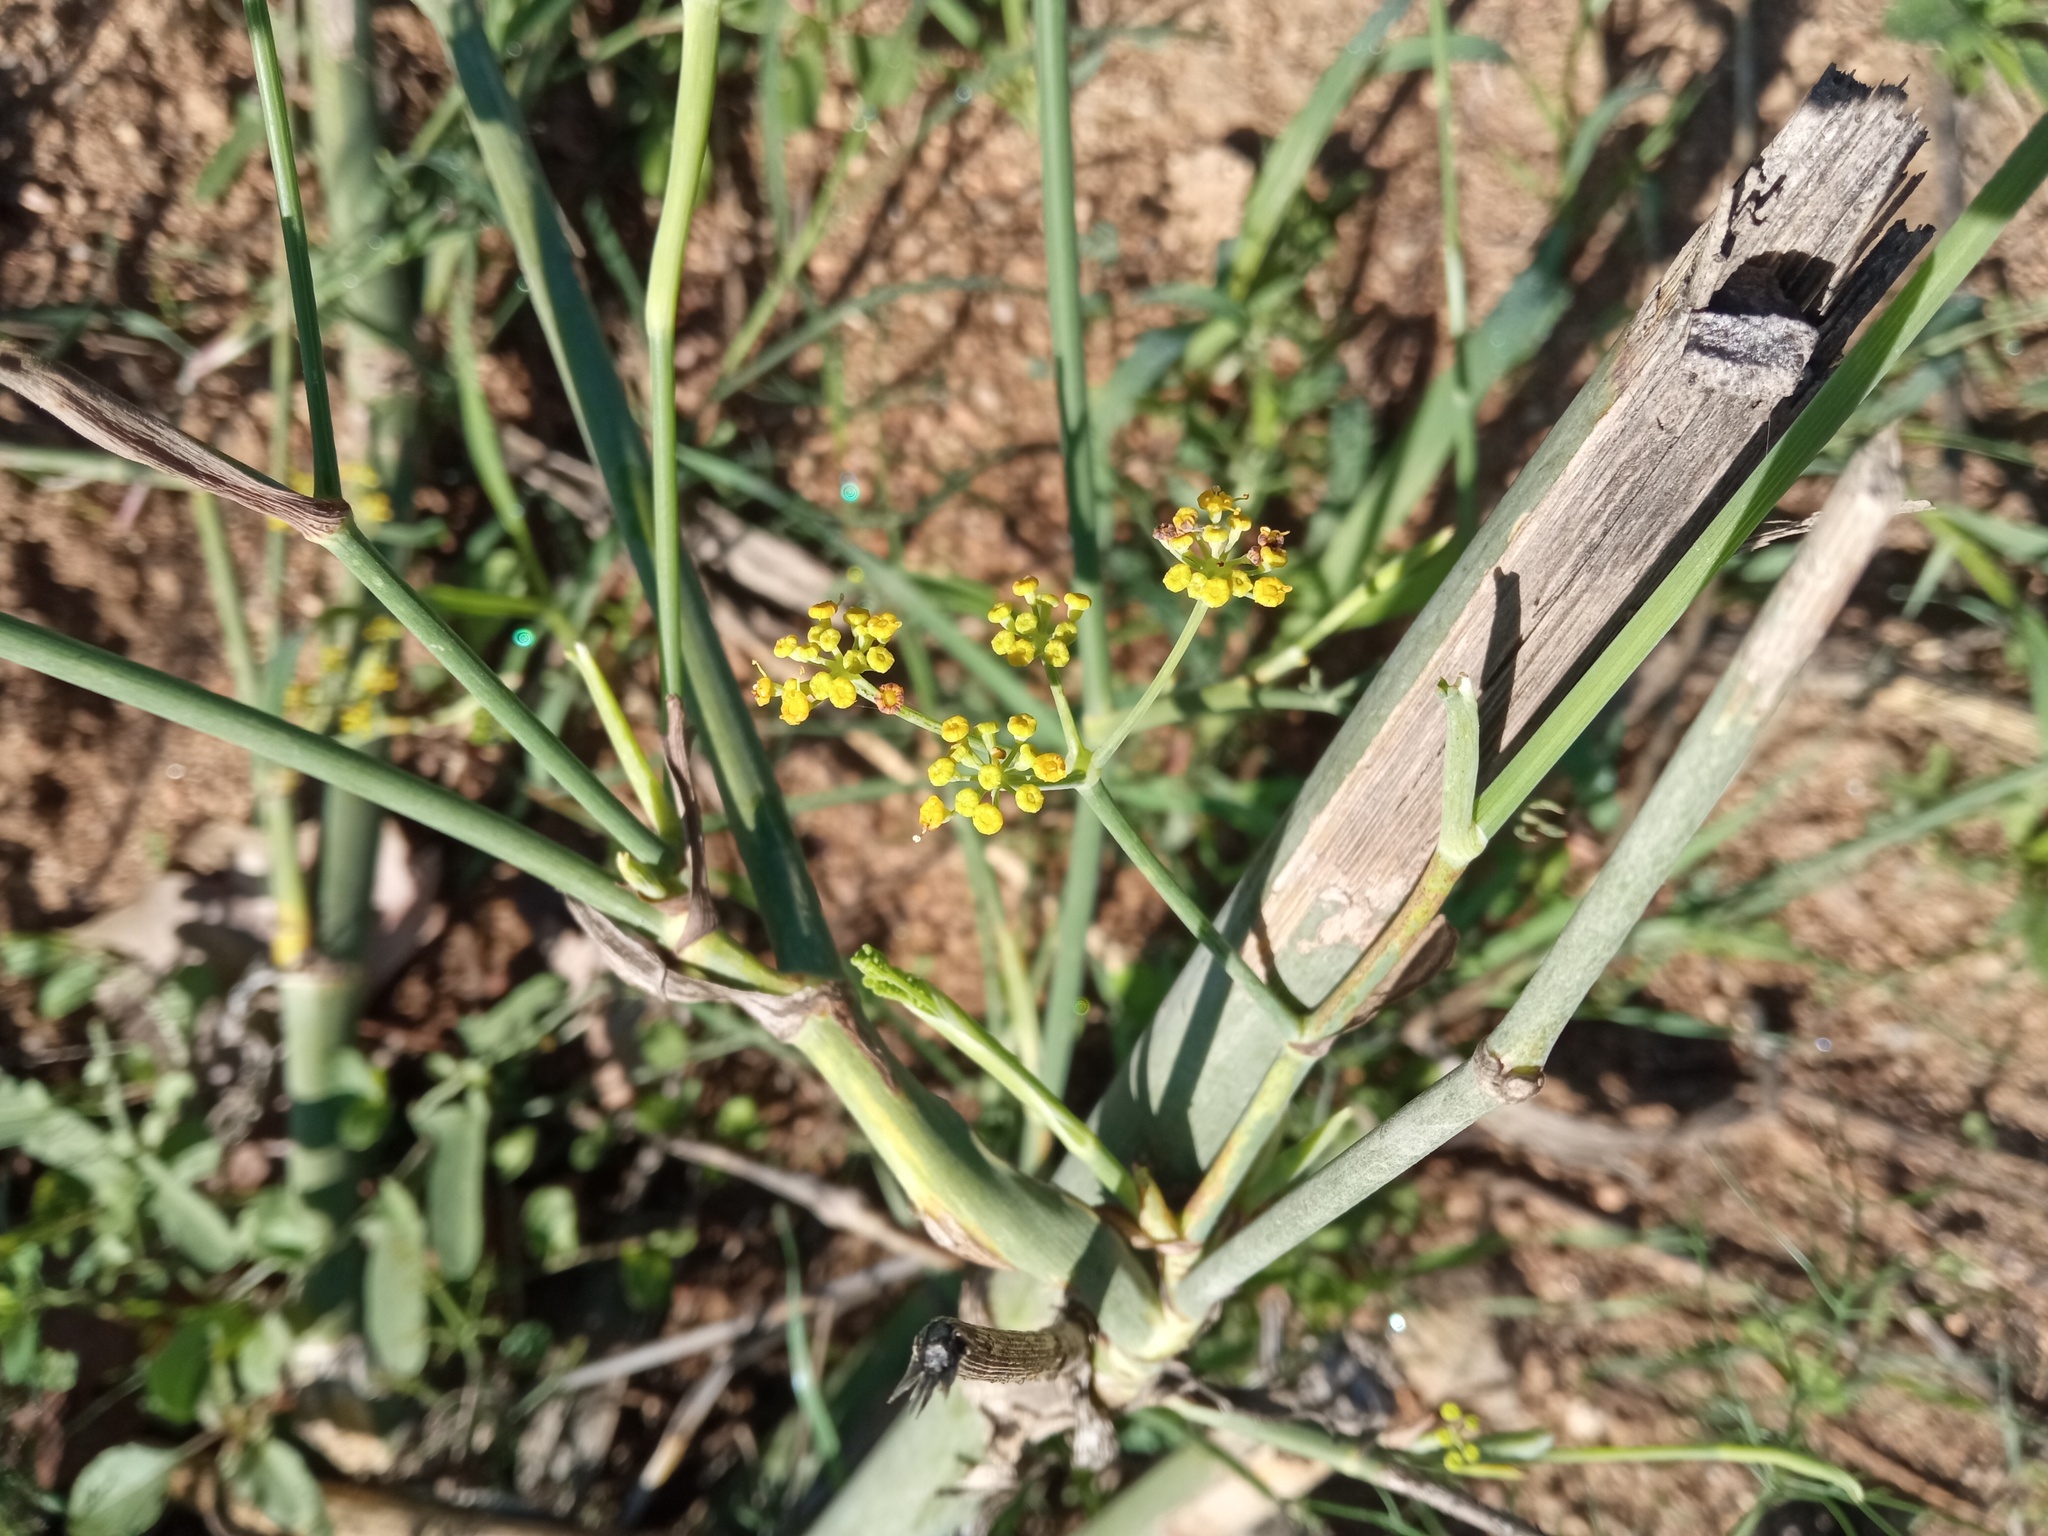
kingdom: Plantae
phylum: Tracheophyta
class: Magnoliopsida
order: Apiales
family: Apiaceae
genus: Foeniculum
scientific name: Foeniculum vulgare
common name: Fennel
